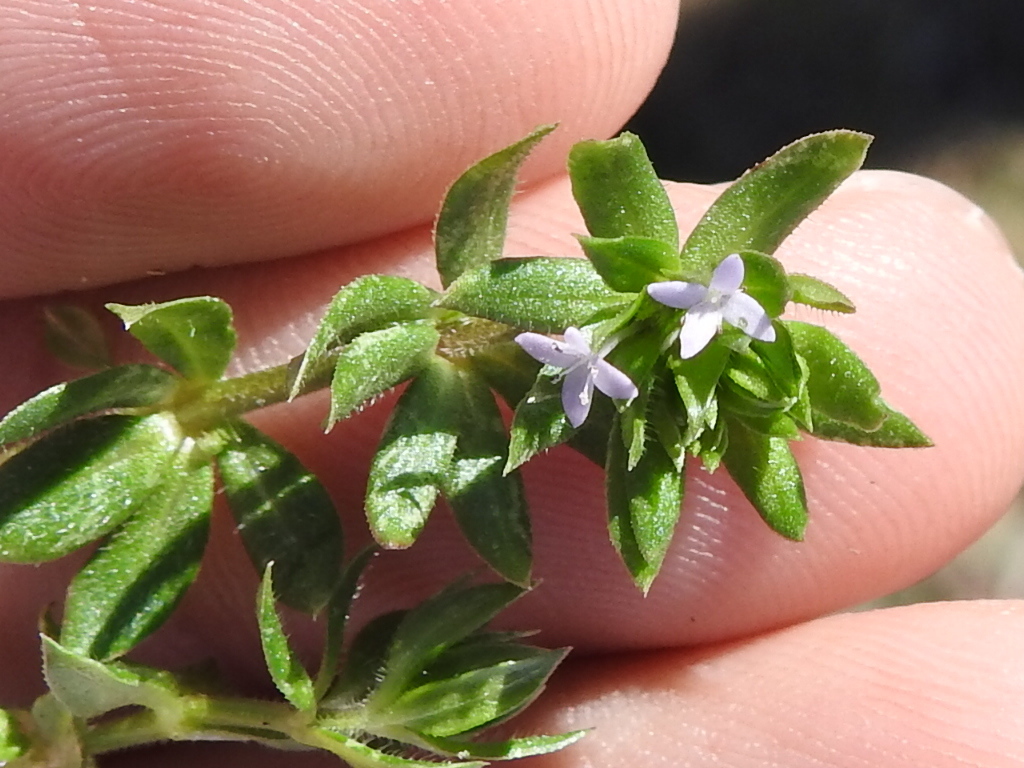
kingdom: Plantae
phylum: Tracheophyta
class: Magnoliopsida
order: Gentianales
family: Rubiaceae
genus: Sherardia
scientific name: Sherardia arvensis
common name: Field madder
